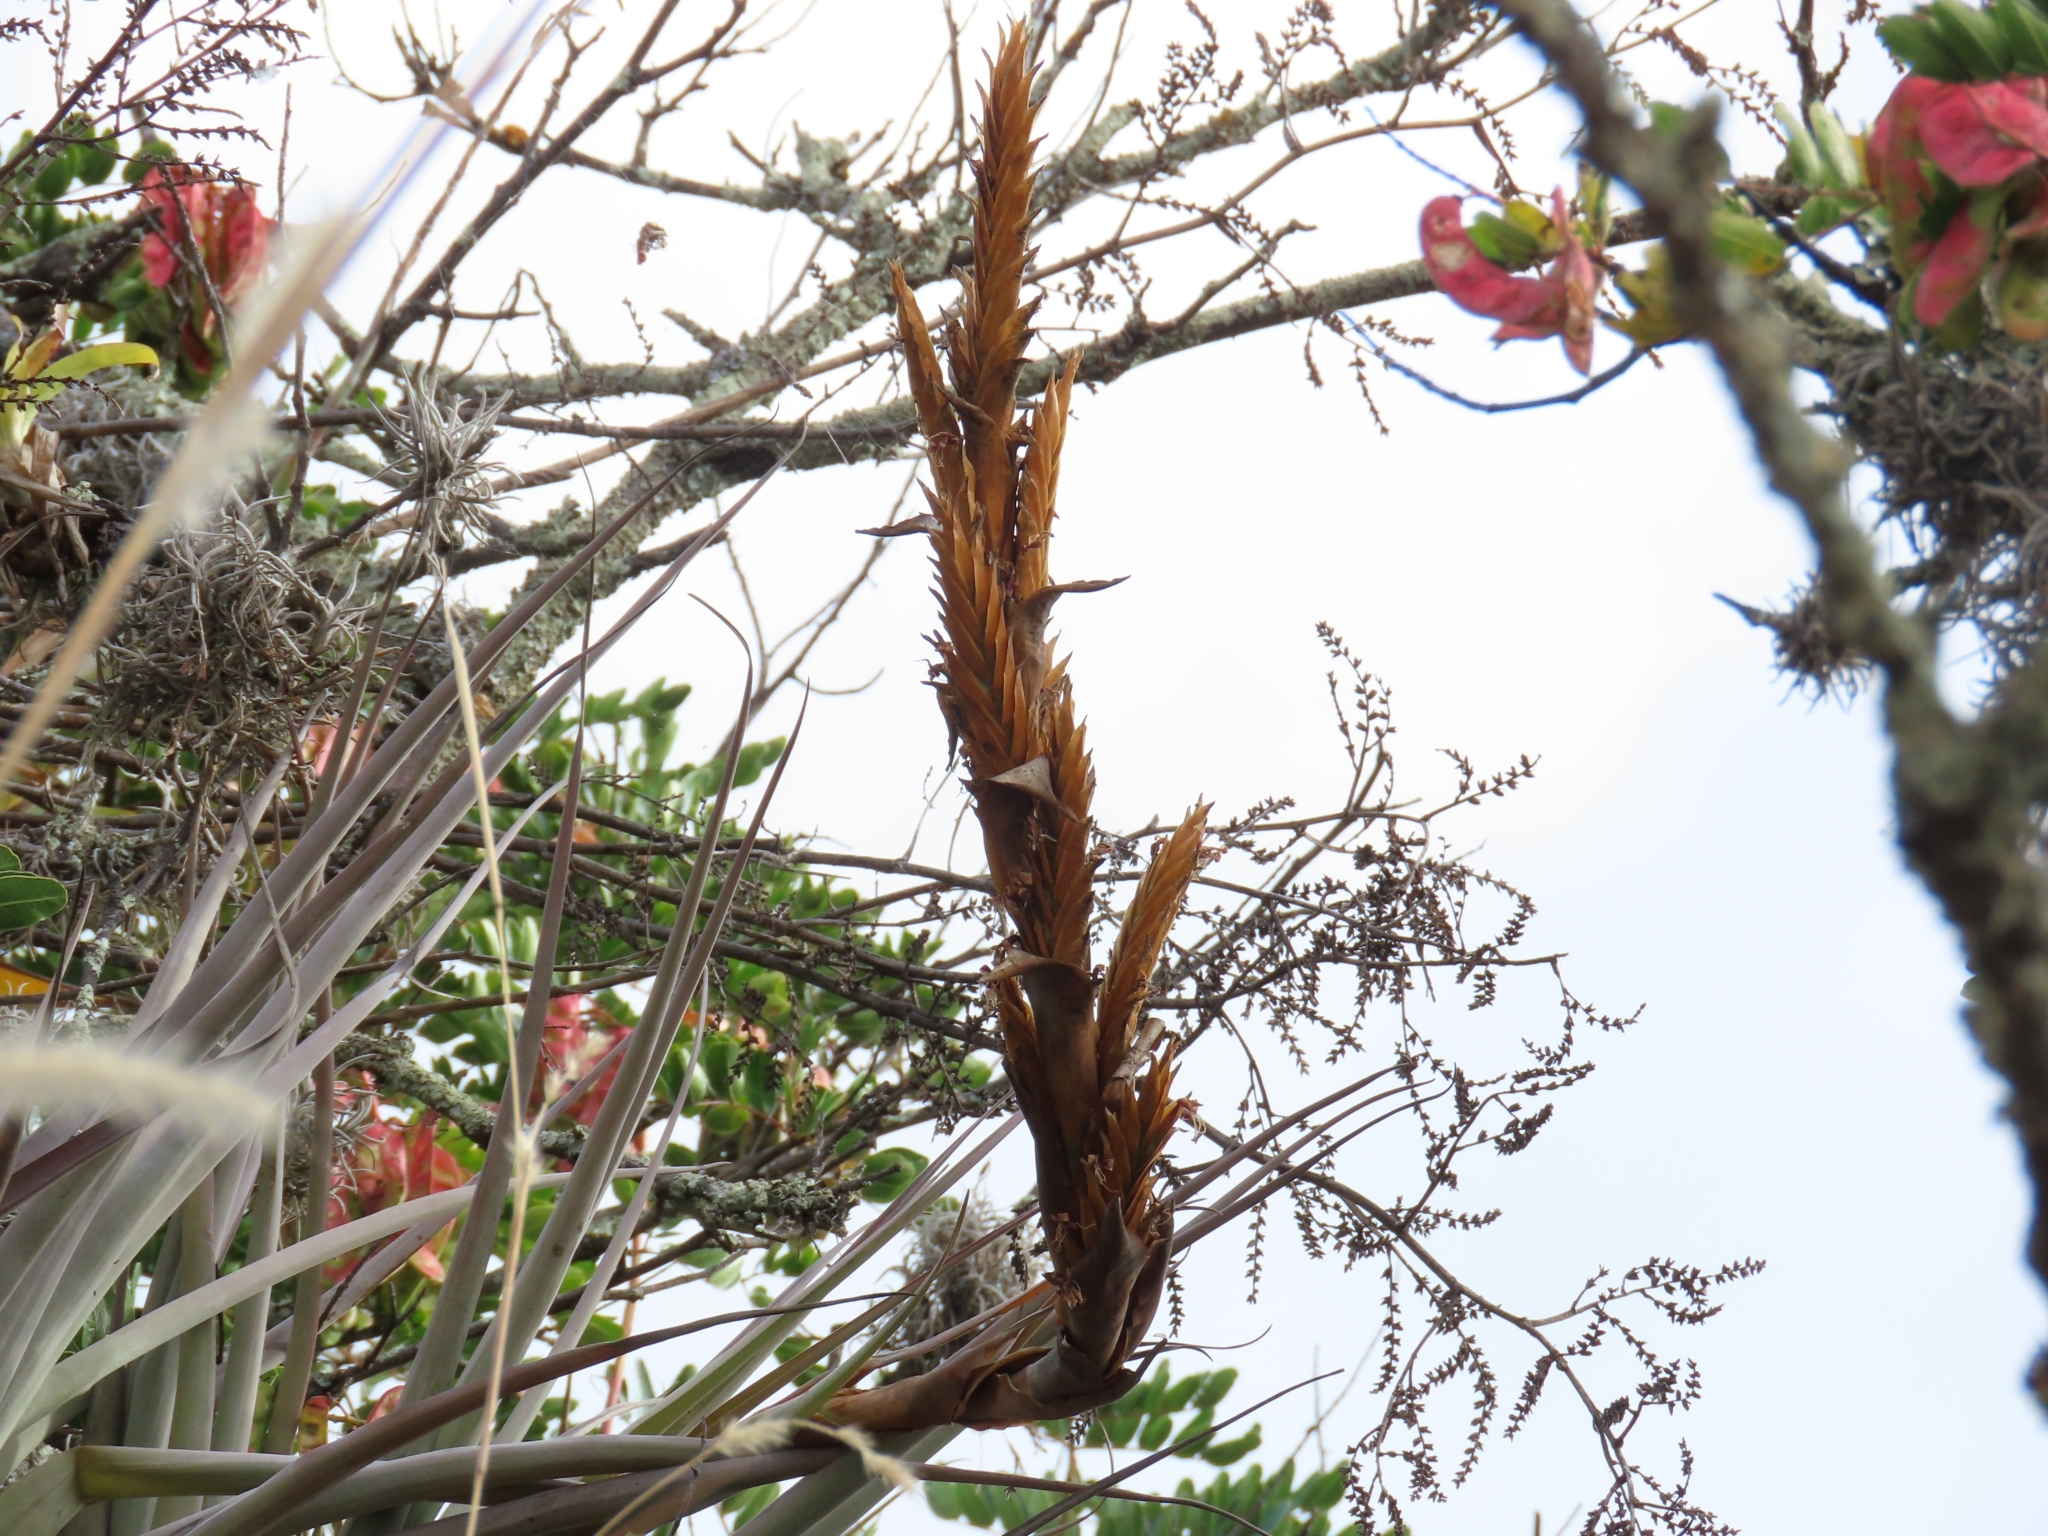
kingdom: Plantae
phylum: Tracheophyta
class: Liliopsida
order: Poales
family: Bromeliaceae
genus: Vriesea
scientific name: Vriesea harmsiana
